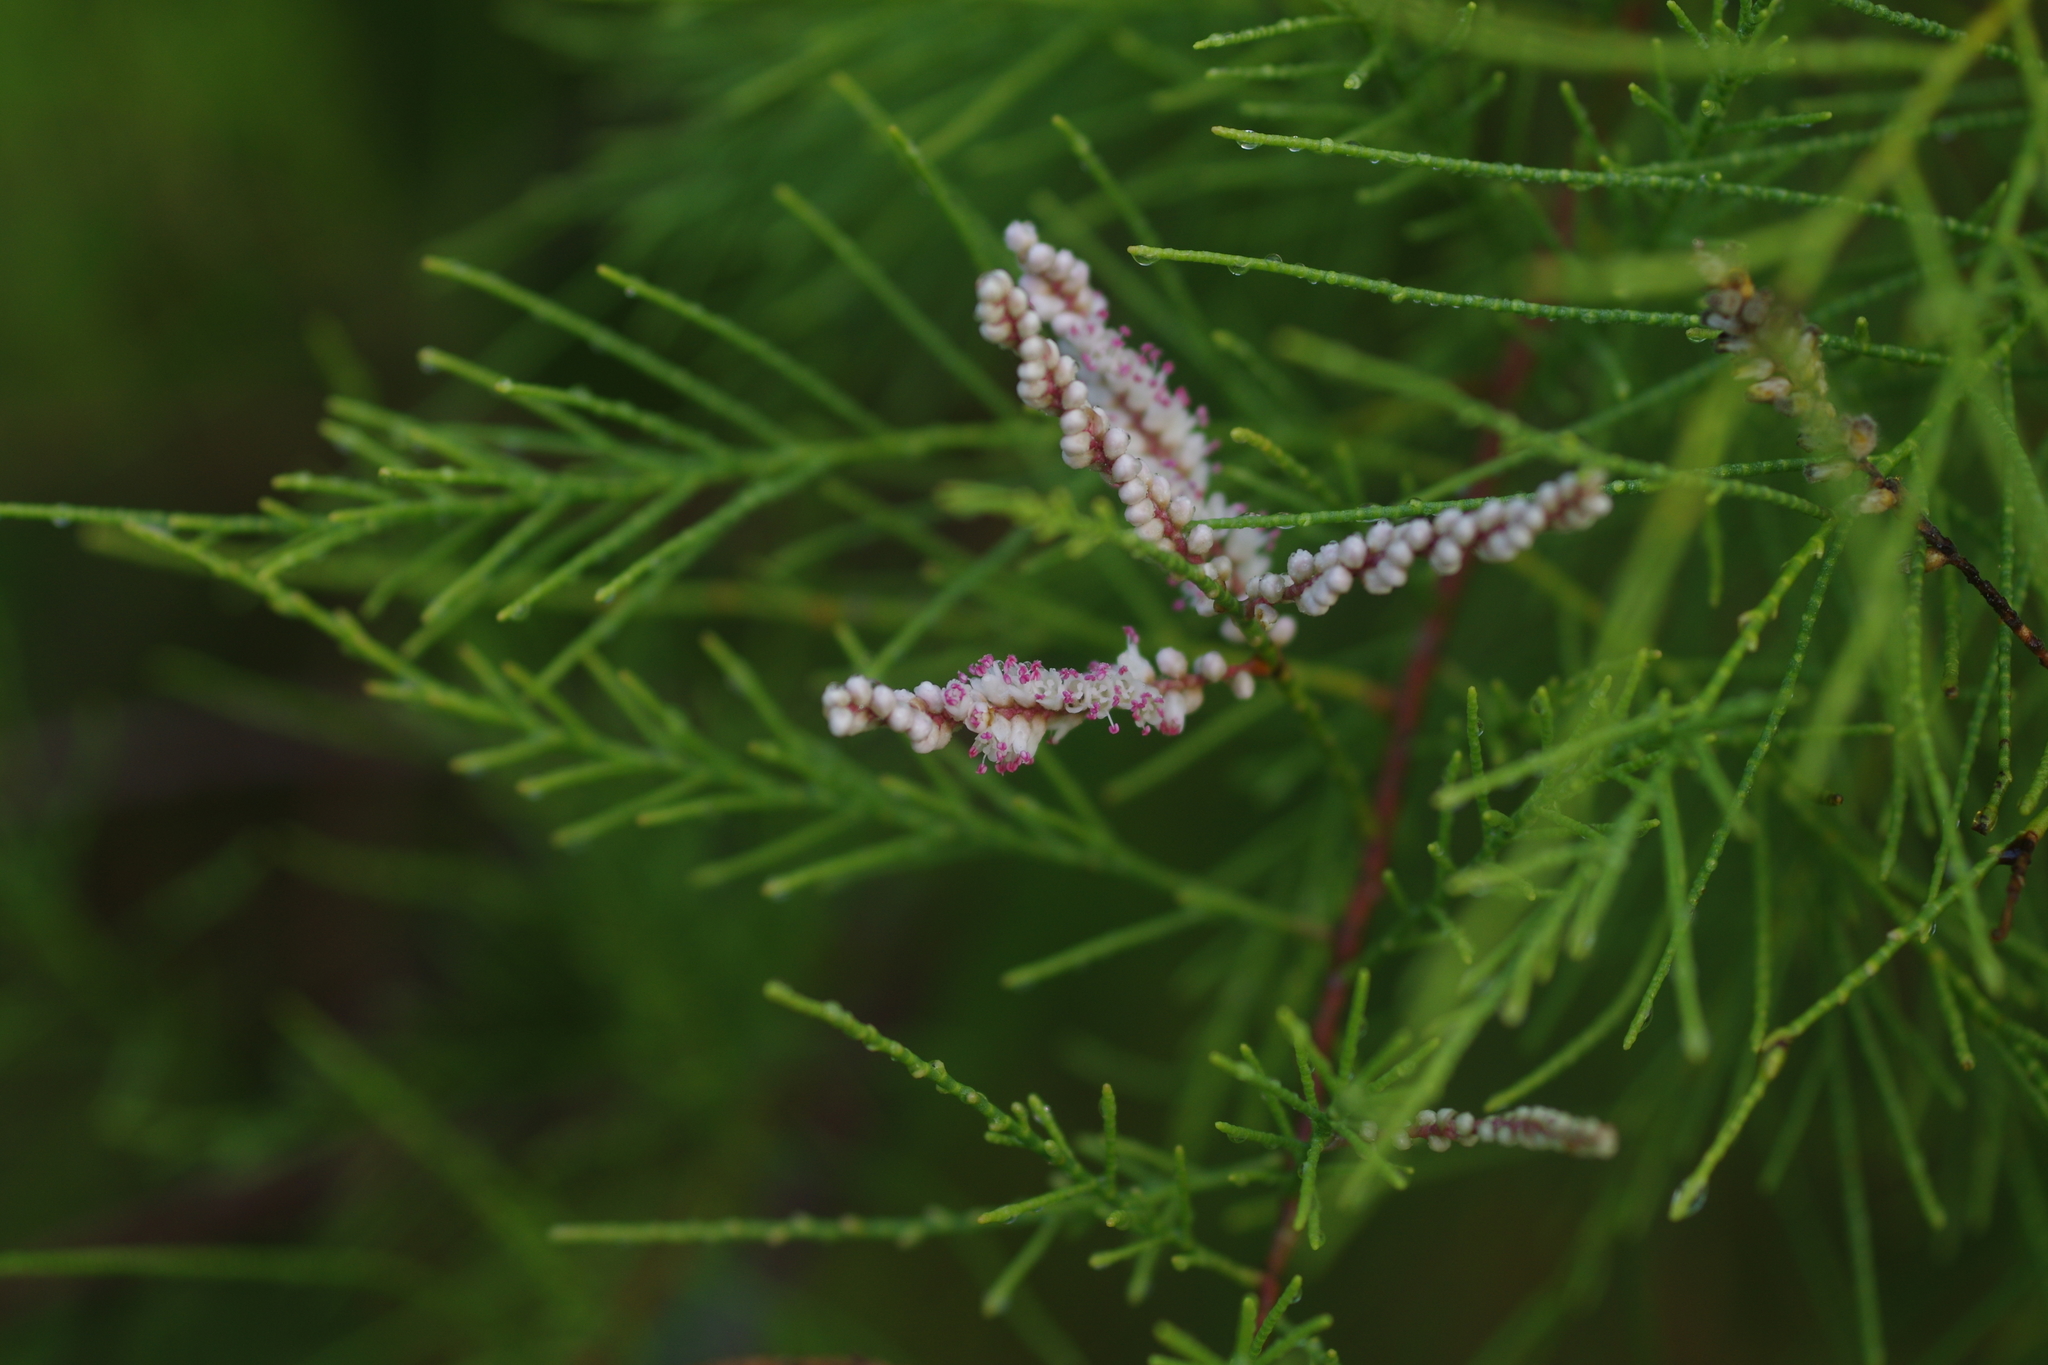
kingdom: Plantae
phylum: Tracheophyta
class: Magnoliopsida
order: Caryophyllales
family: Tamaricaceae
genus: Tamarix
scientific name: Tamarix aphylla
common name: Athel tamarisk
